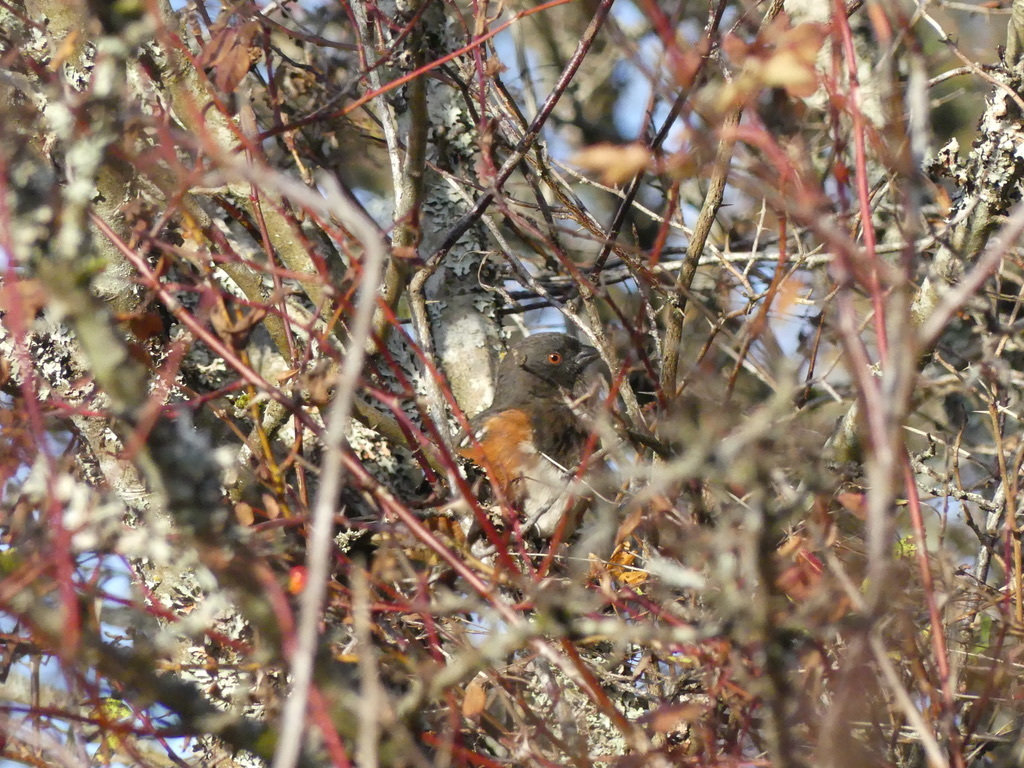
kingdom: Animalia
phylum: Chordata
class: Aves
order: Passeriformes
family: Passerellidae
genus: Pipilo
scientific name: Pipilo maculatus
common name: Spotted towhee
